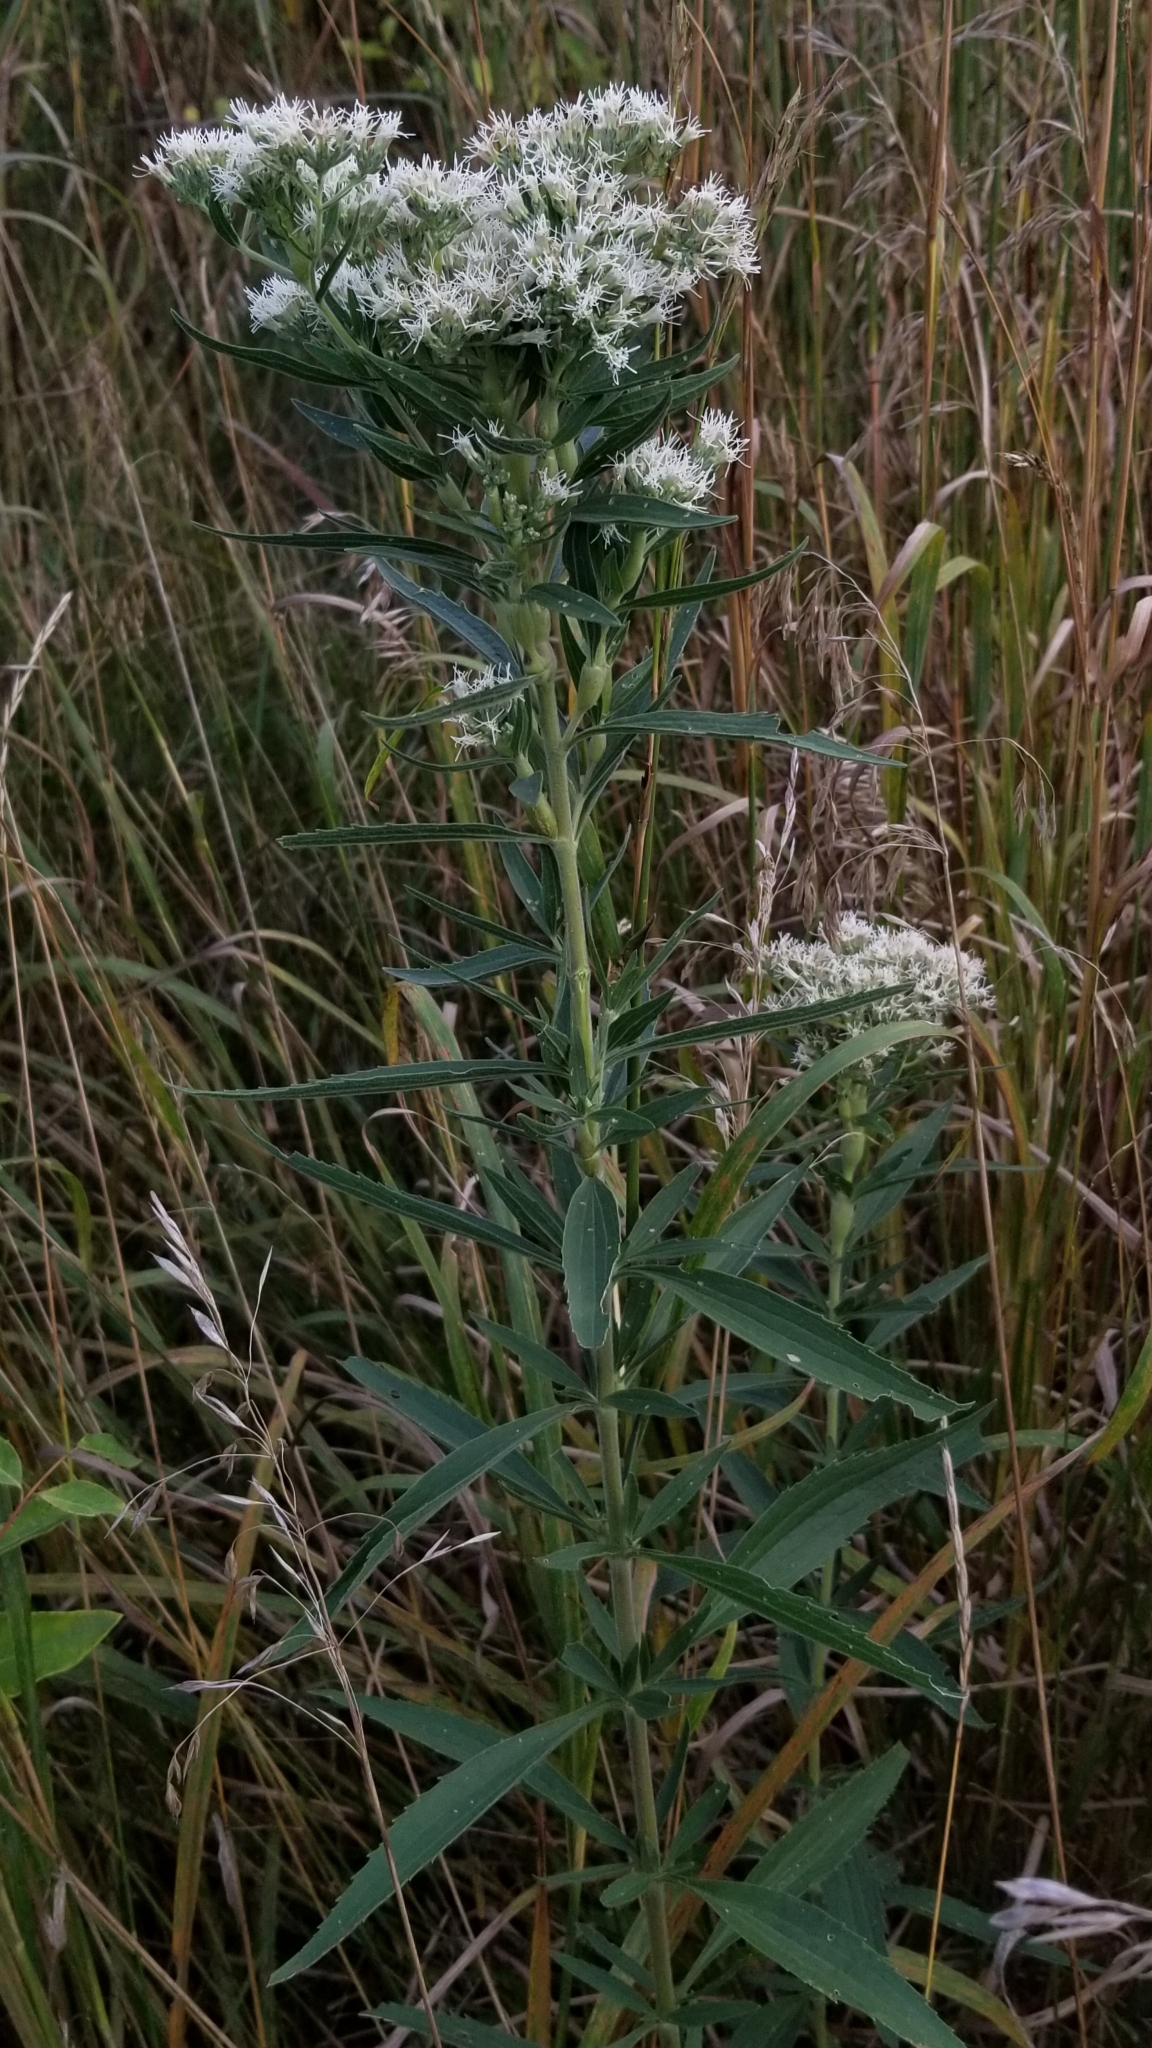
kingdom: Plantae
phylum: Tracheophyta
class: Magnoliopsida
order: Asterales
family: Asteraceae
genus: Eupatorium
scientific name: Eupatorium altissimum
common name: Tall thoroughwort
